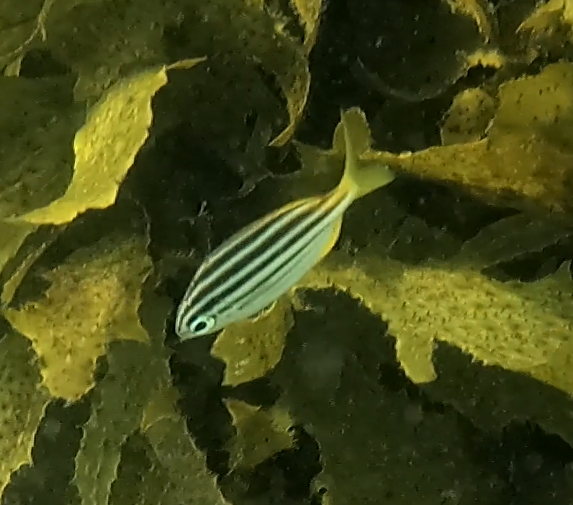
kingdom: Animalia
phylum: Chordata
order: Perciformes
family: Kyphosidae
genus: Atypichthys
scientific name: Atypichthys strigatus
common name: Australian mado
